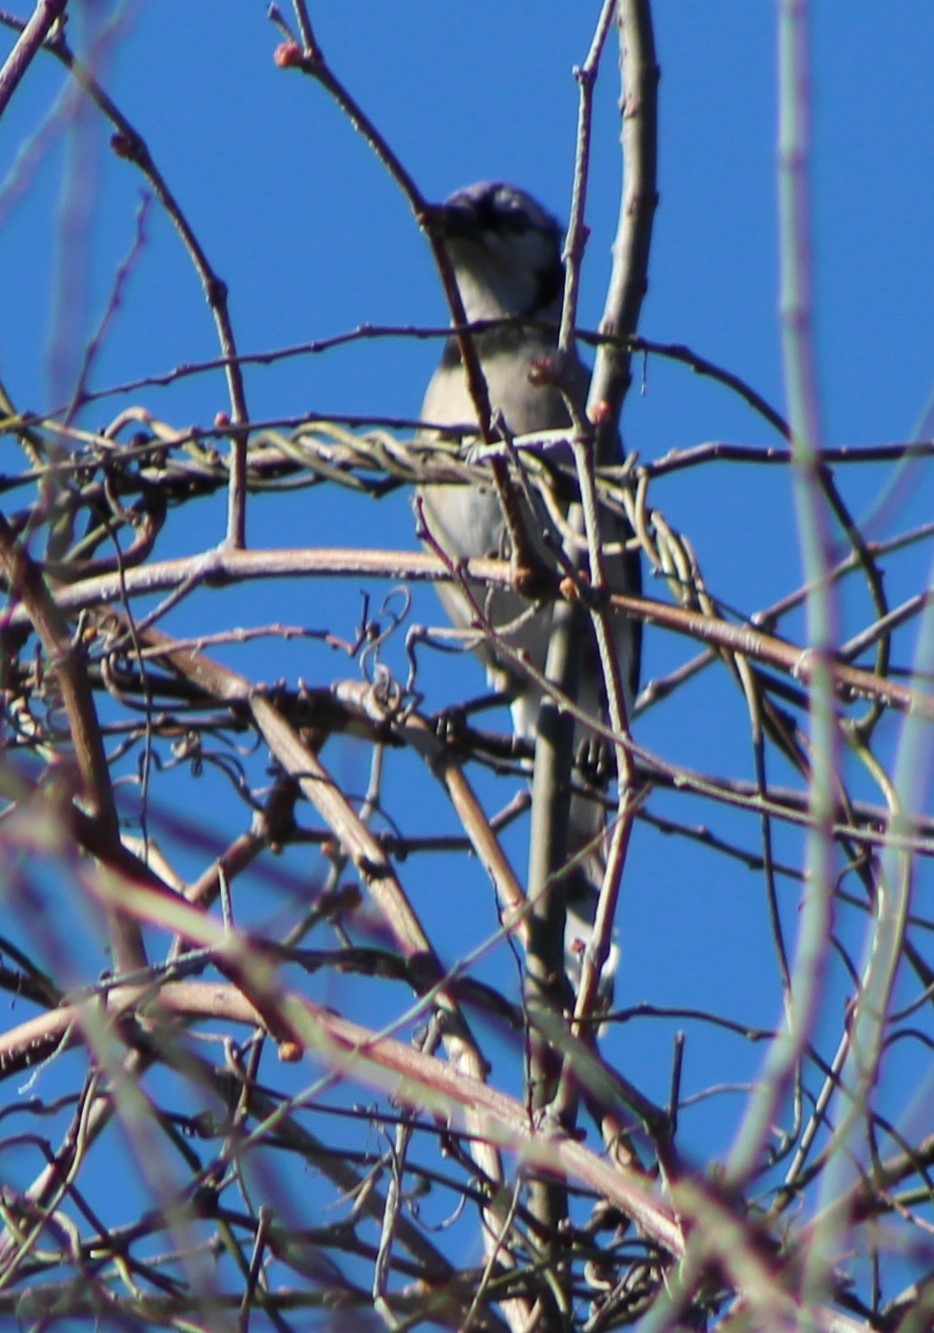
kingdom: Animalia
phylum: Chordata
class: Aves
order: Passeriformes
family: Corvidae
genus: Cyanocitta
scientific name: Cyanocitta cristata
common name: Blue jay
